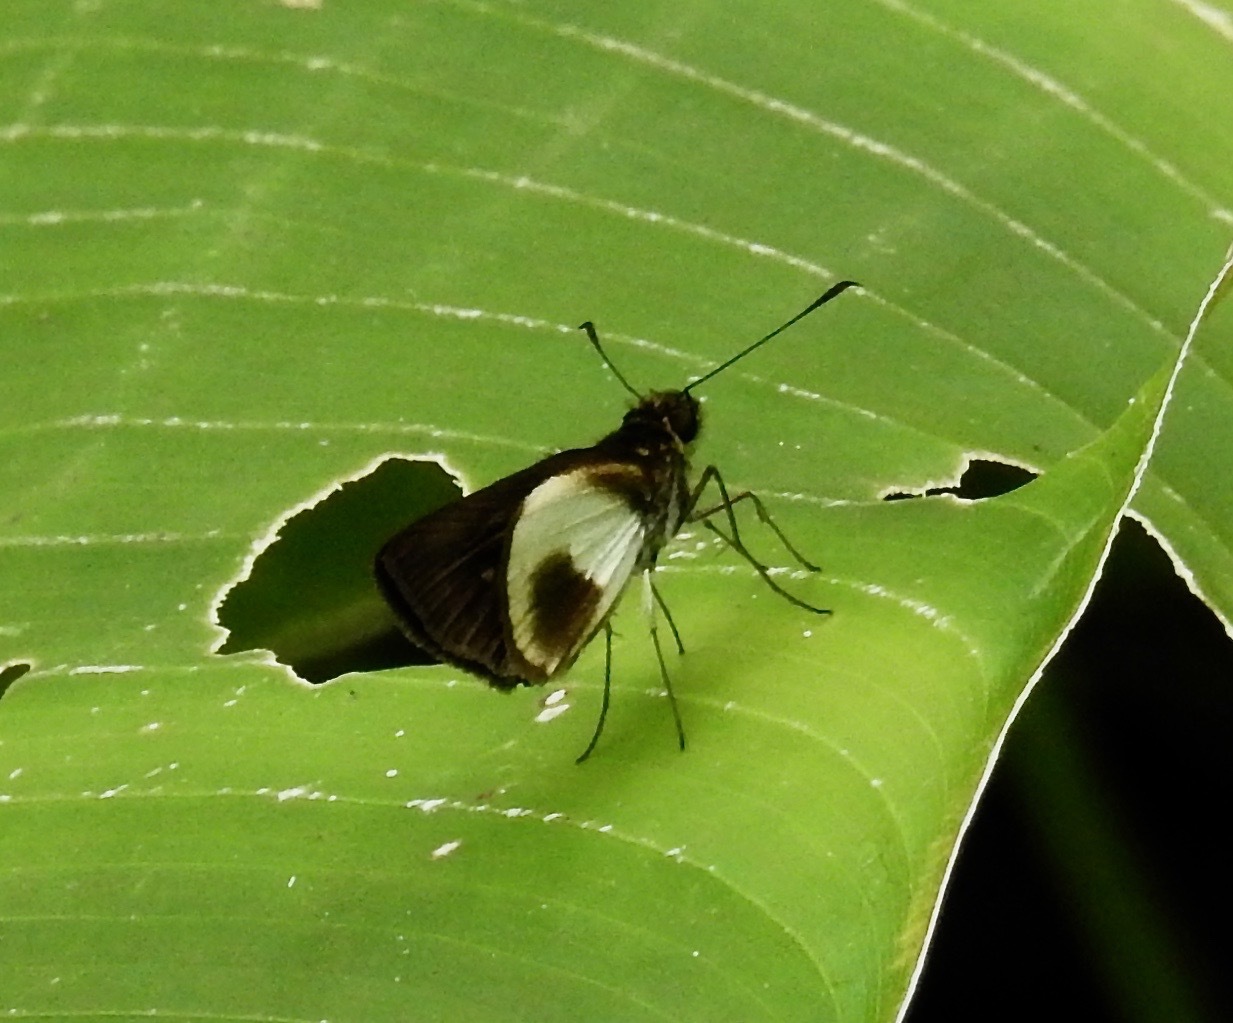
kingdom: Animalia
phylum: Arthropoda
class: Insecta
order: Lepidoptera
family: Hesperiidae
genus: Mnestheus
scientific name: Mnestheus ittona
